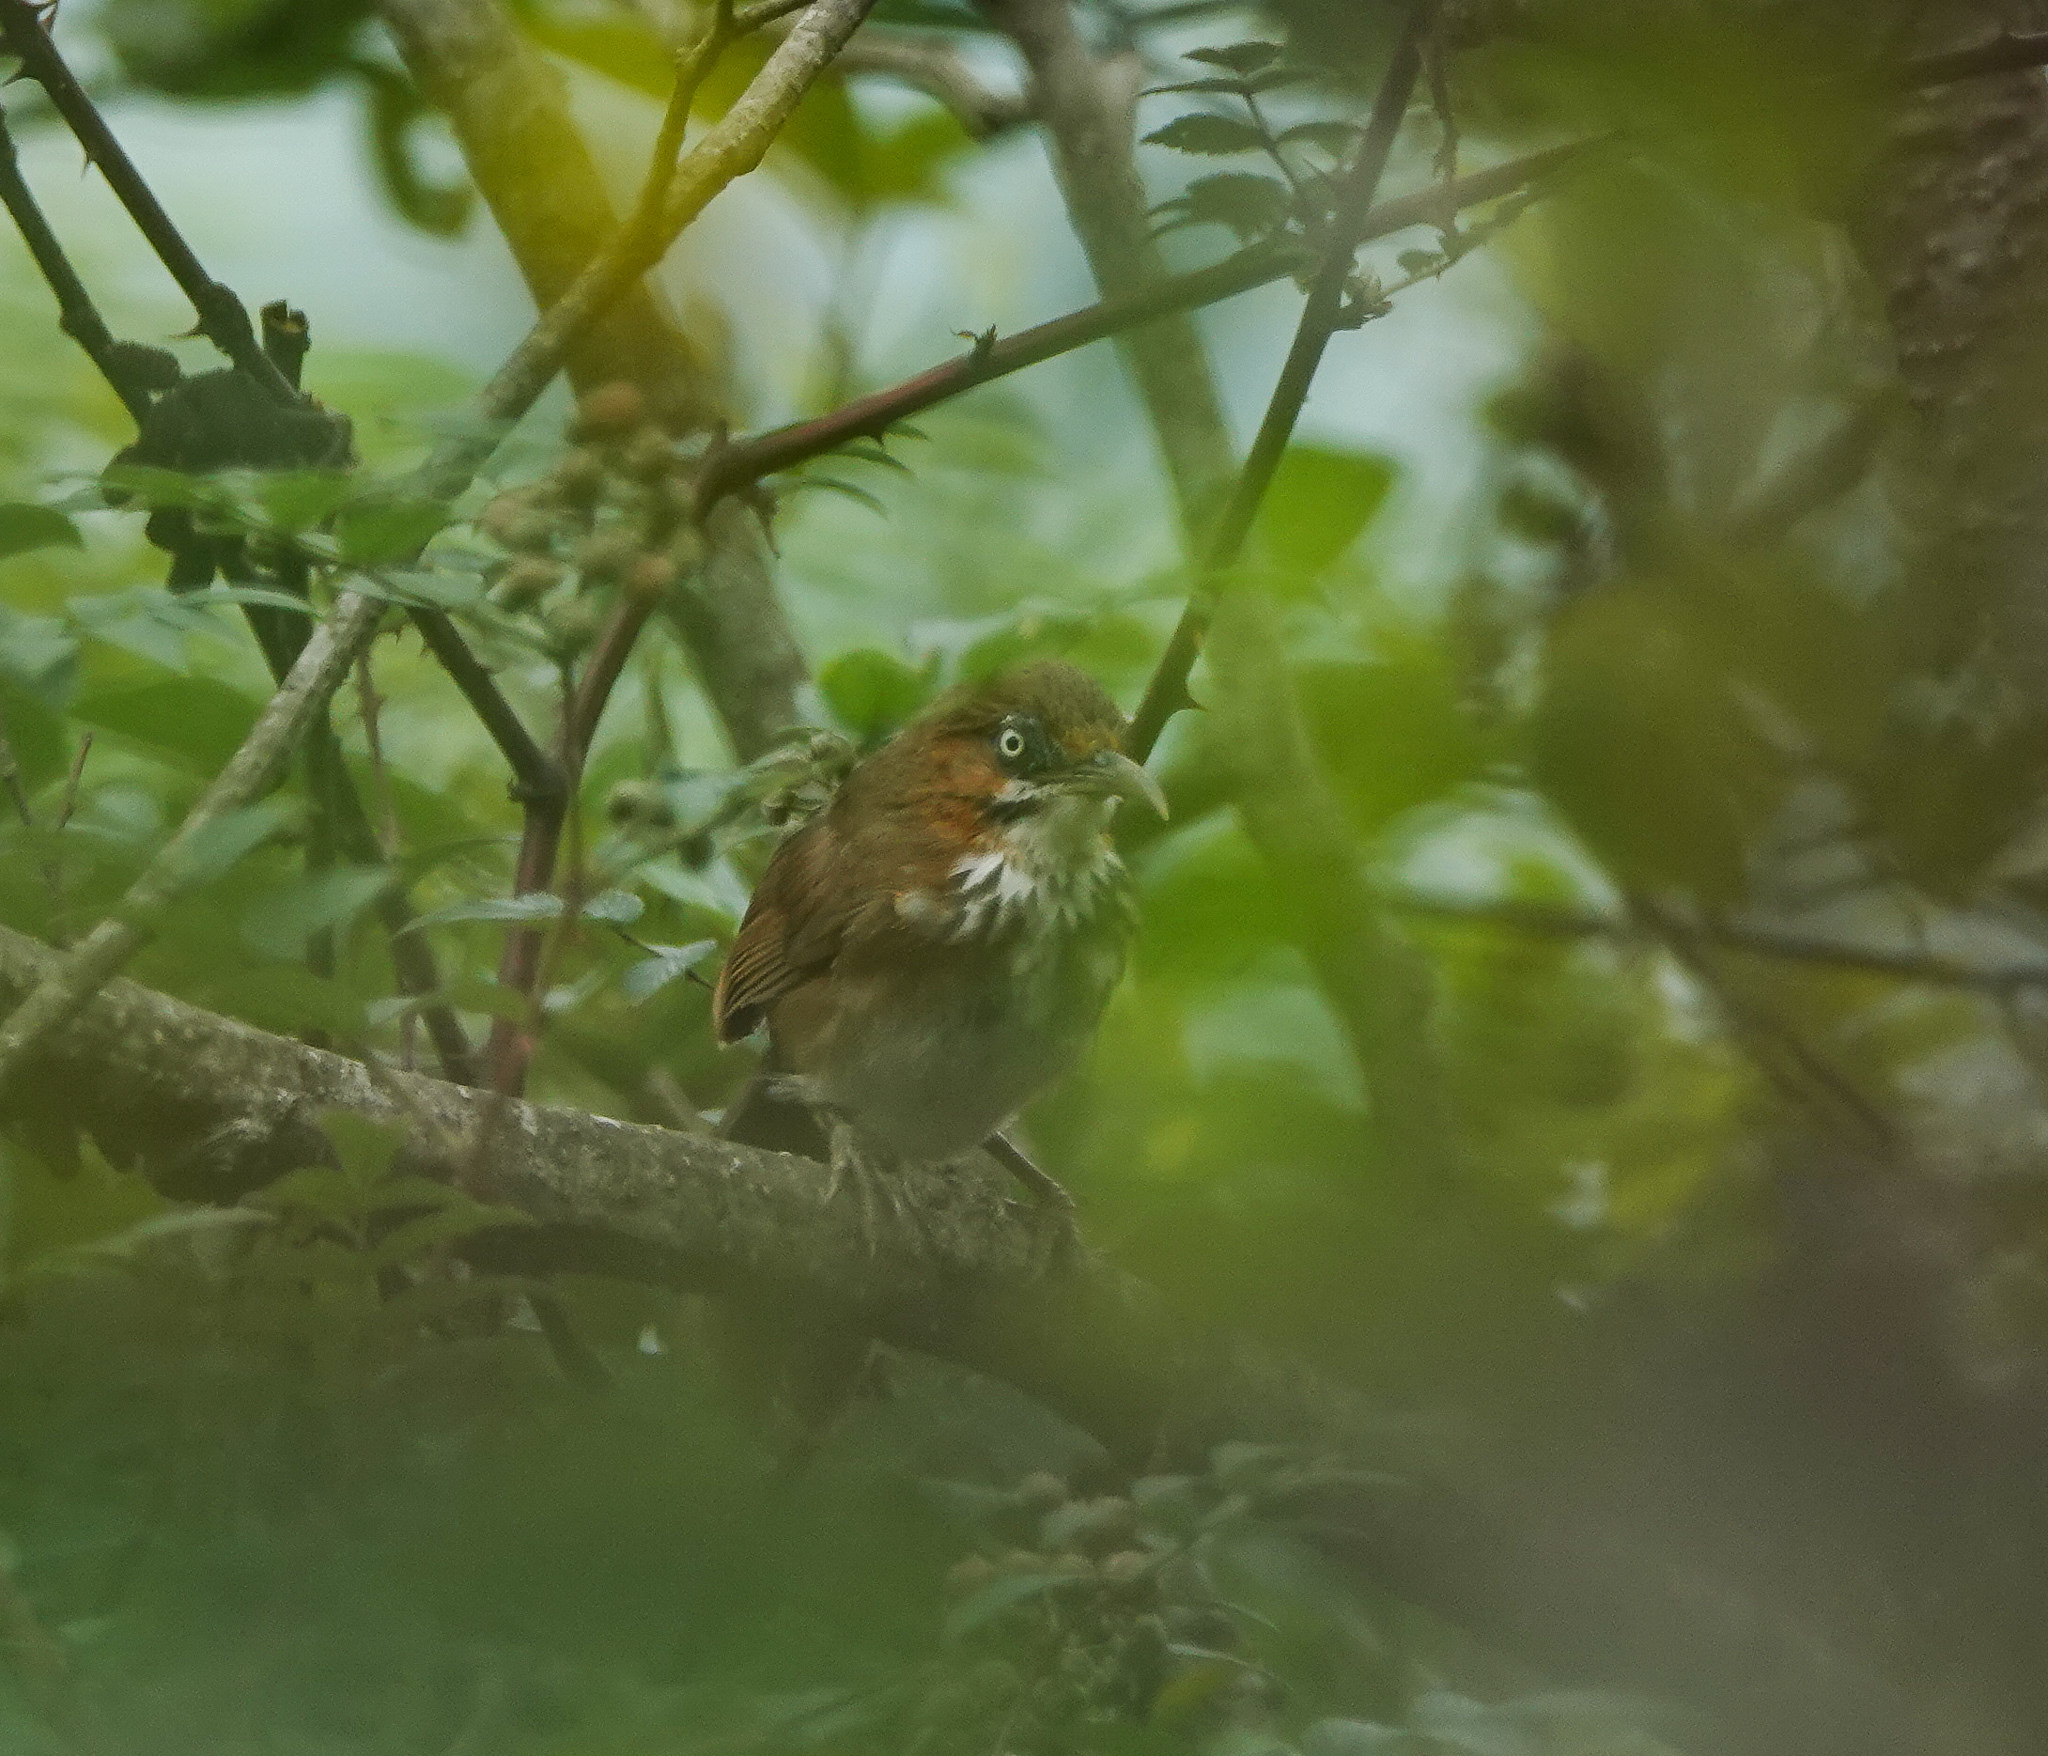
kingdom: Animalia
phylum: Chordata
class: Aves
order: Passeriformes
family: Timaliidae
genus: Pomatorhinus
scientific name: Pomatorhinus mcclellandi
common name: Spot-breasted scimitar babbler
